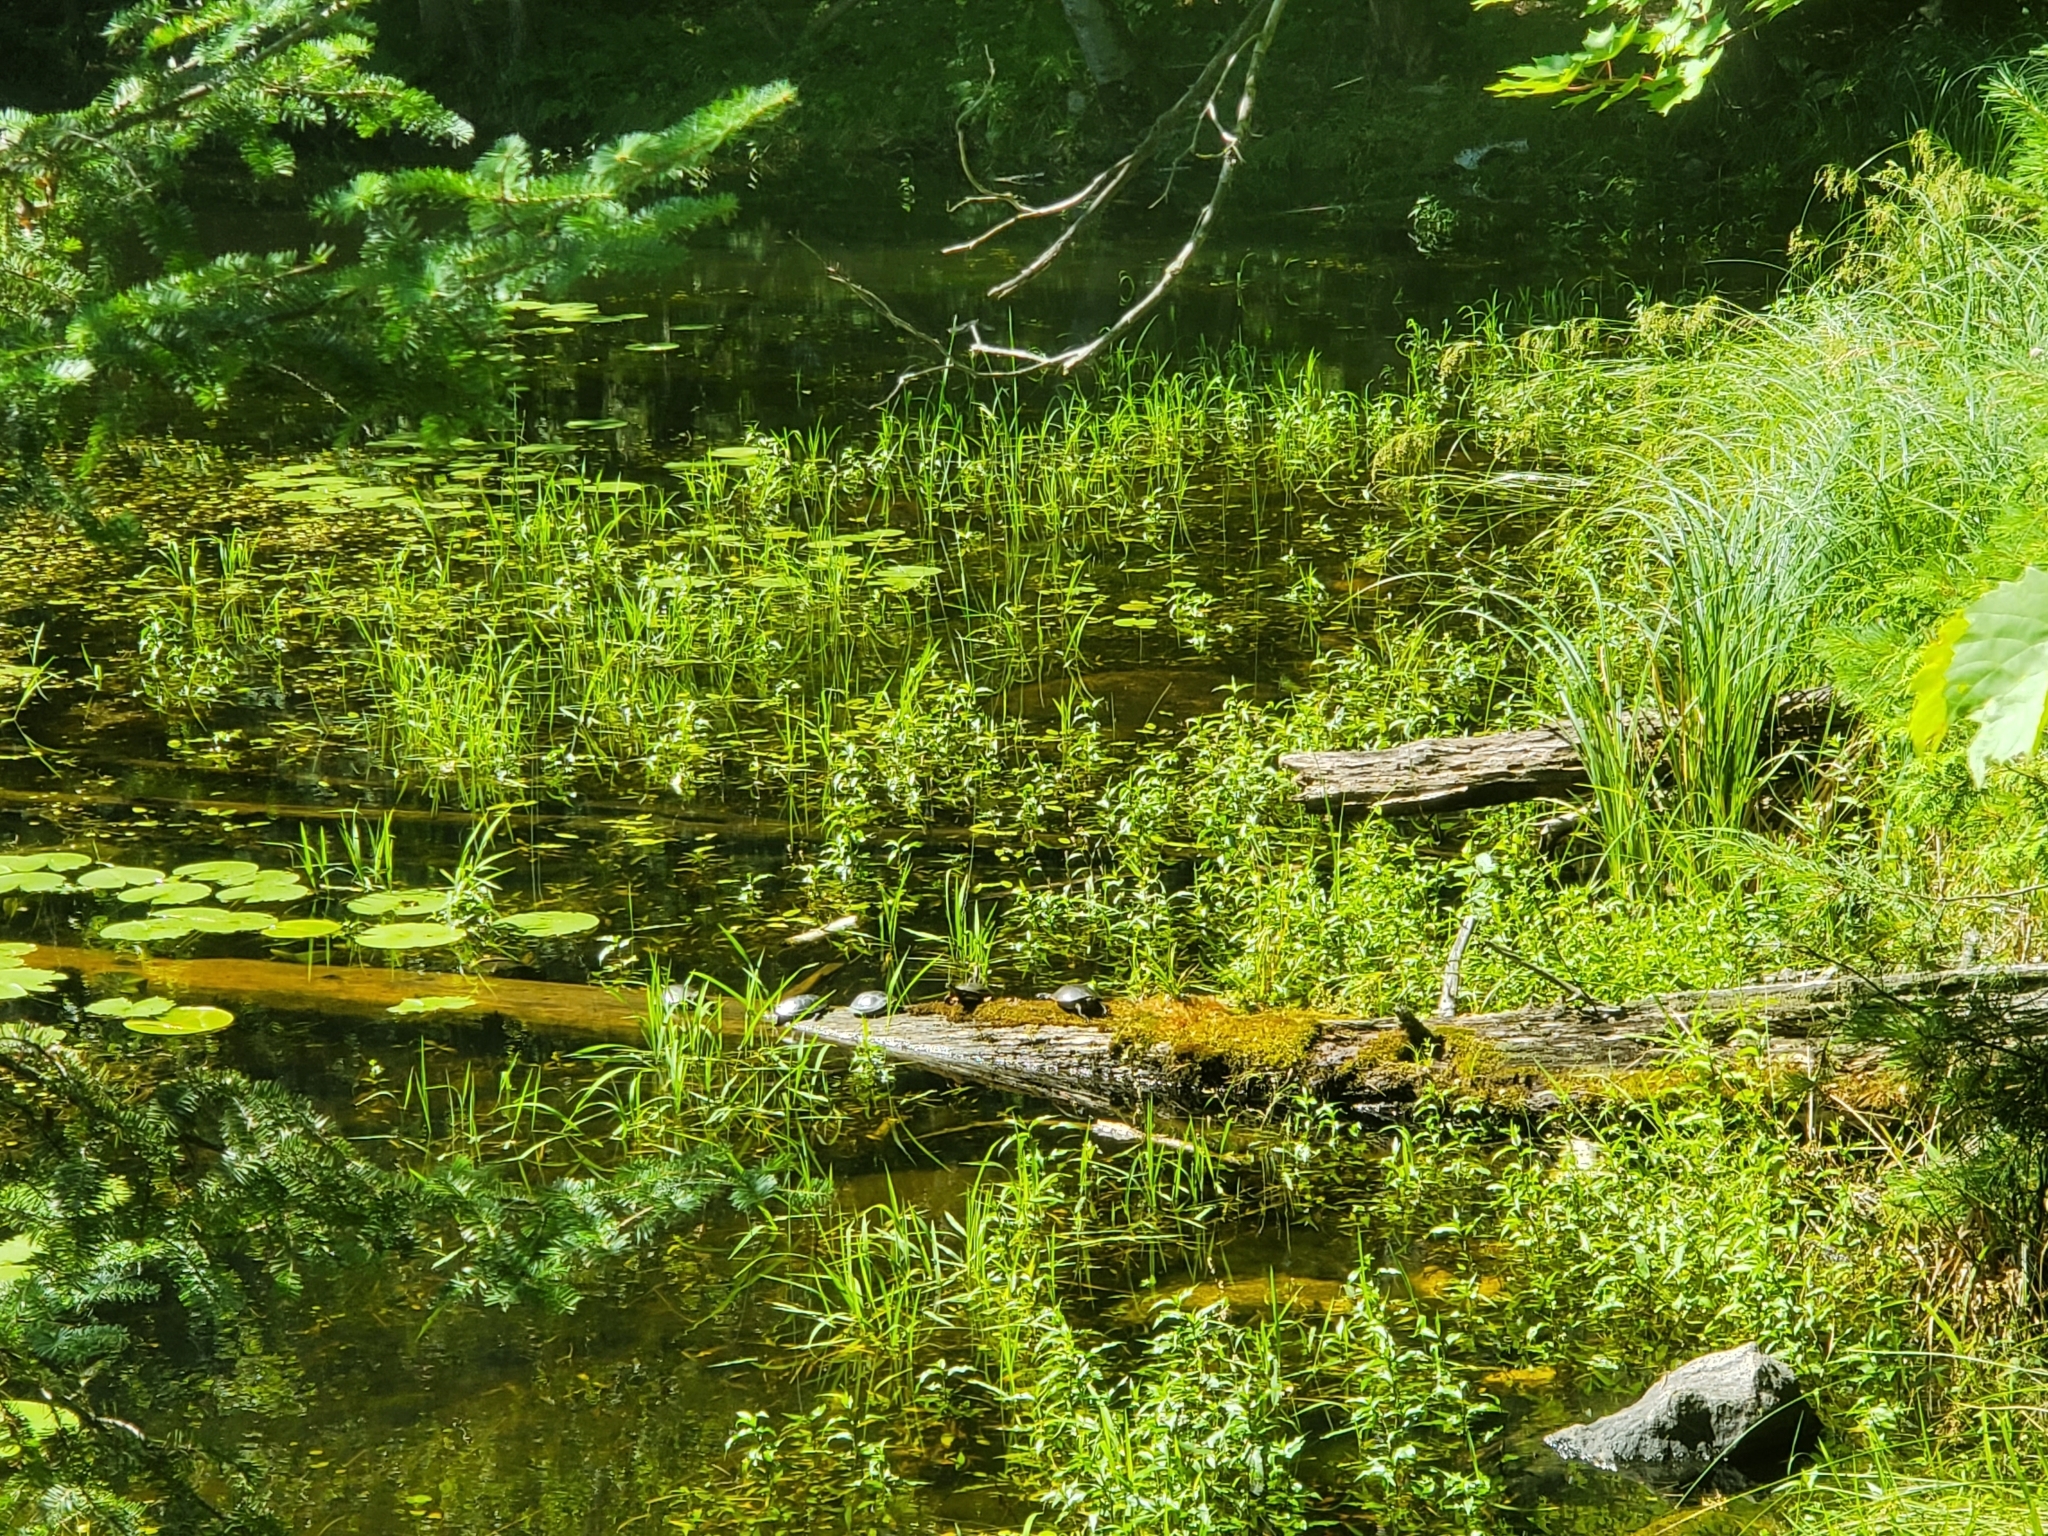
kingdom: Animalia
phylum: Chordata
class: Testudines
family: Emydidae
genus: Chrysemys
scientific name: Chrysemys picta
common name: Painted turtle
